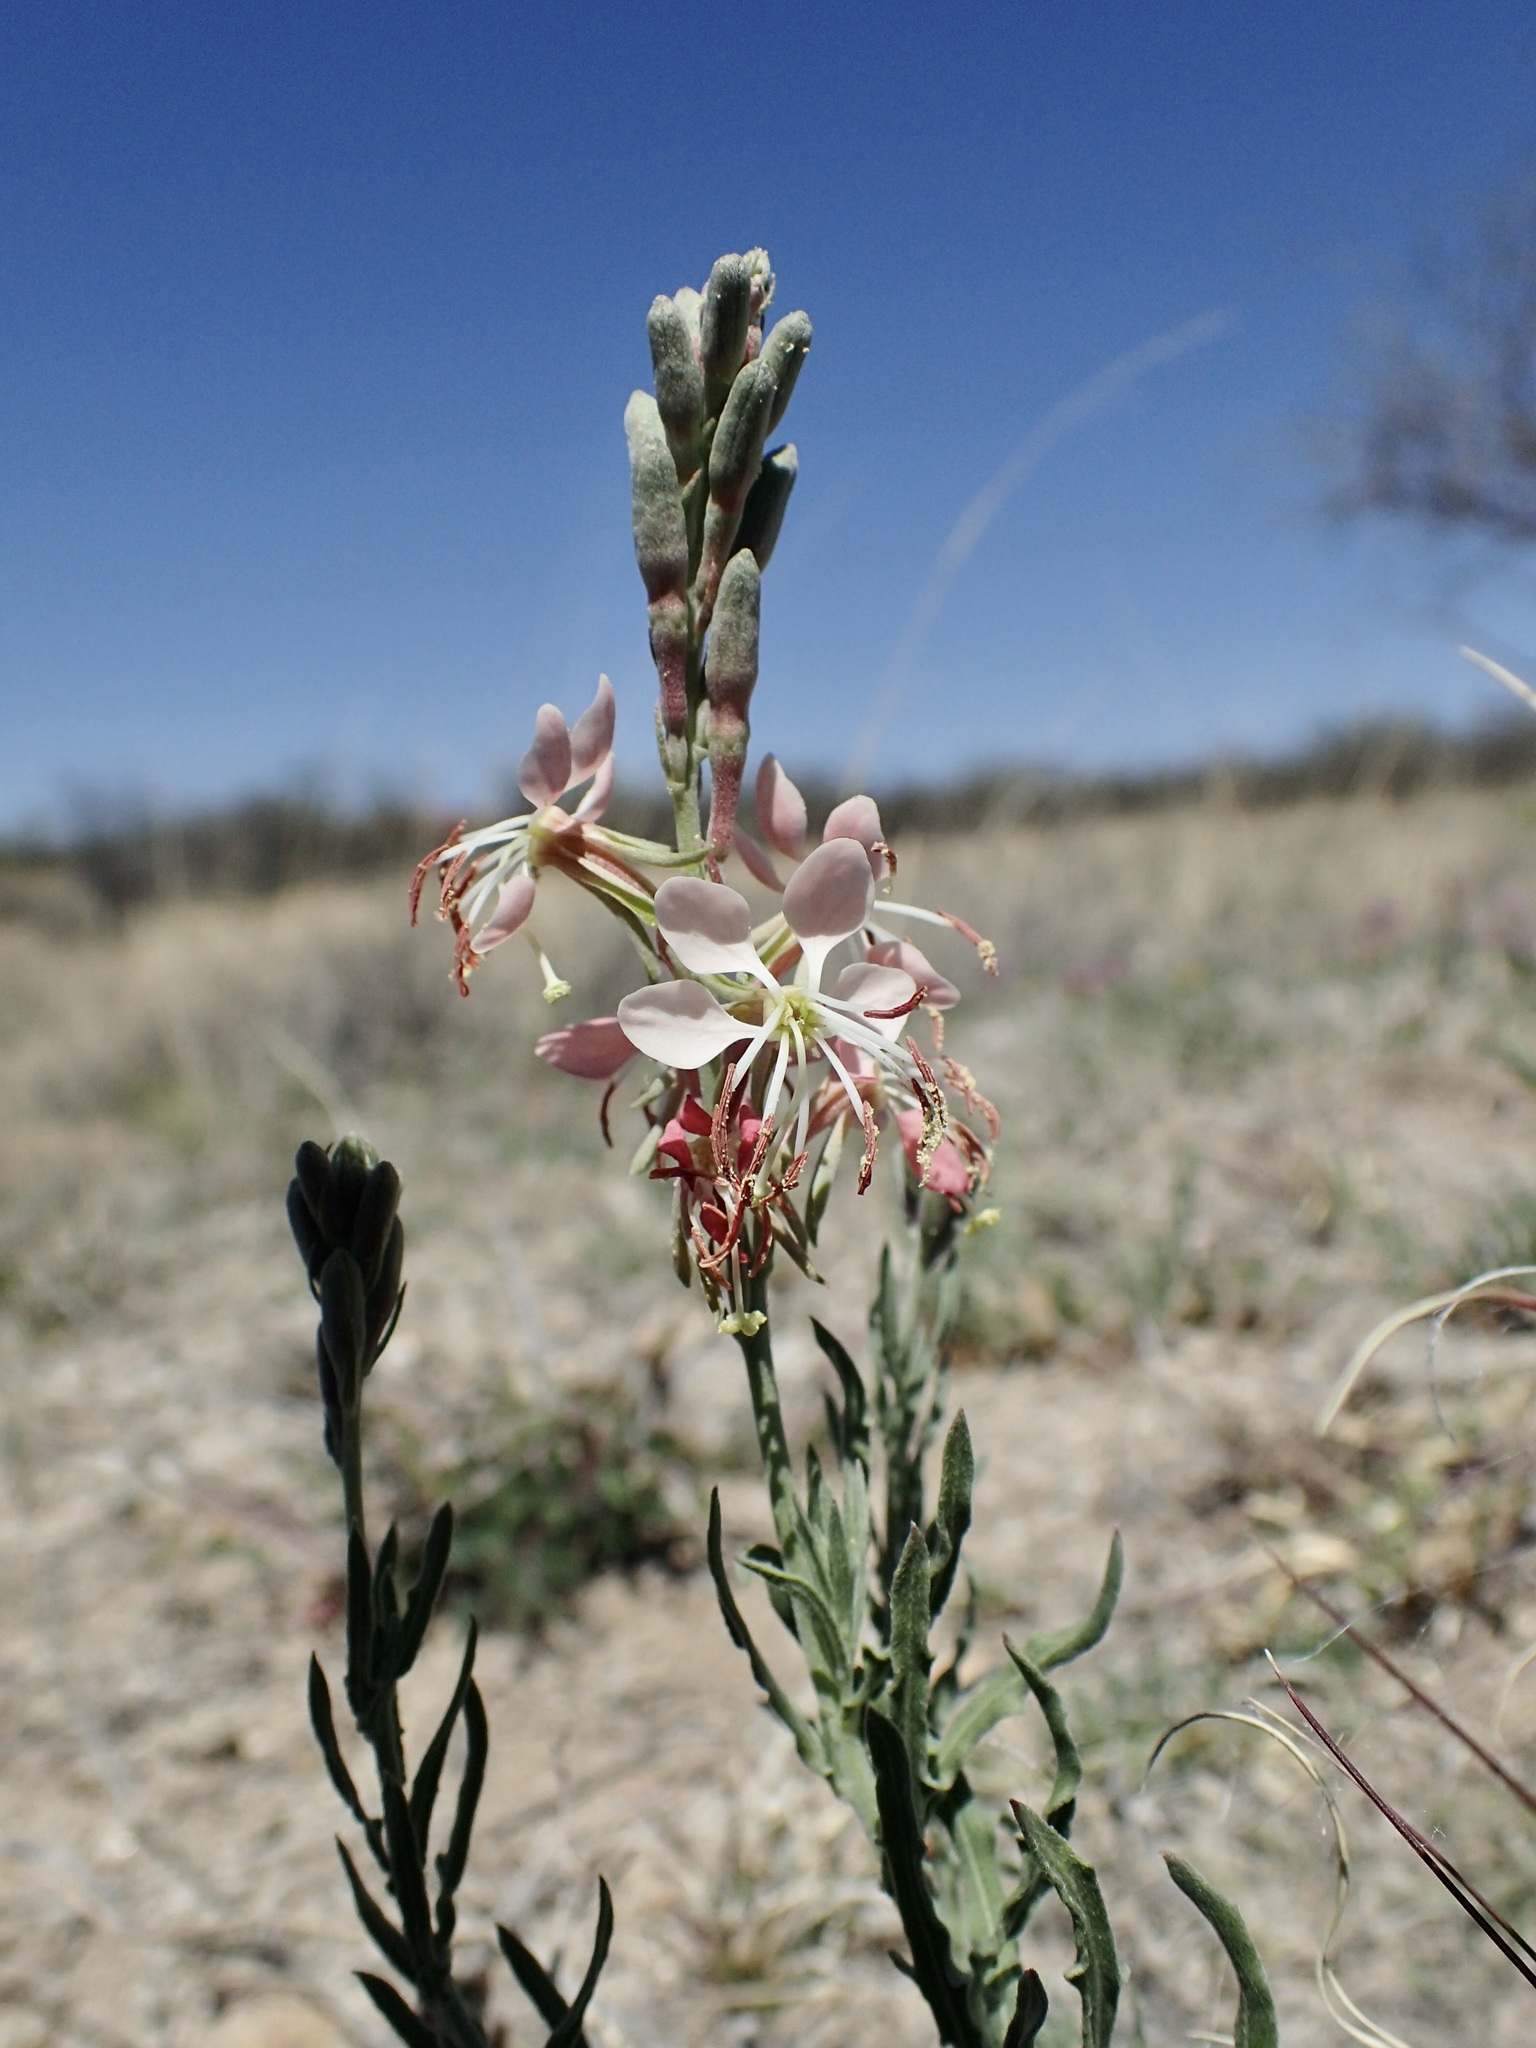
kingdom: Plantae
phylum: Tracheophyta
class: Magnoliopsida
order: Myrtales
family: Onagraceae
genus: Oenothera
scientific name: Oenothera suffrutescens
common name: Scarlet beeblossom
